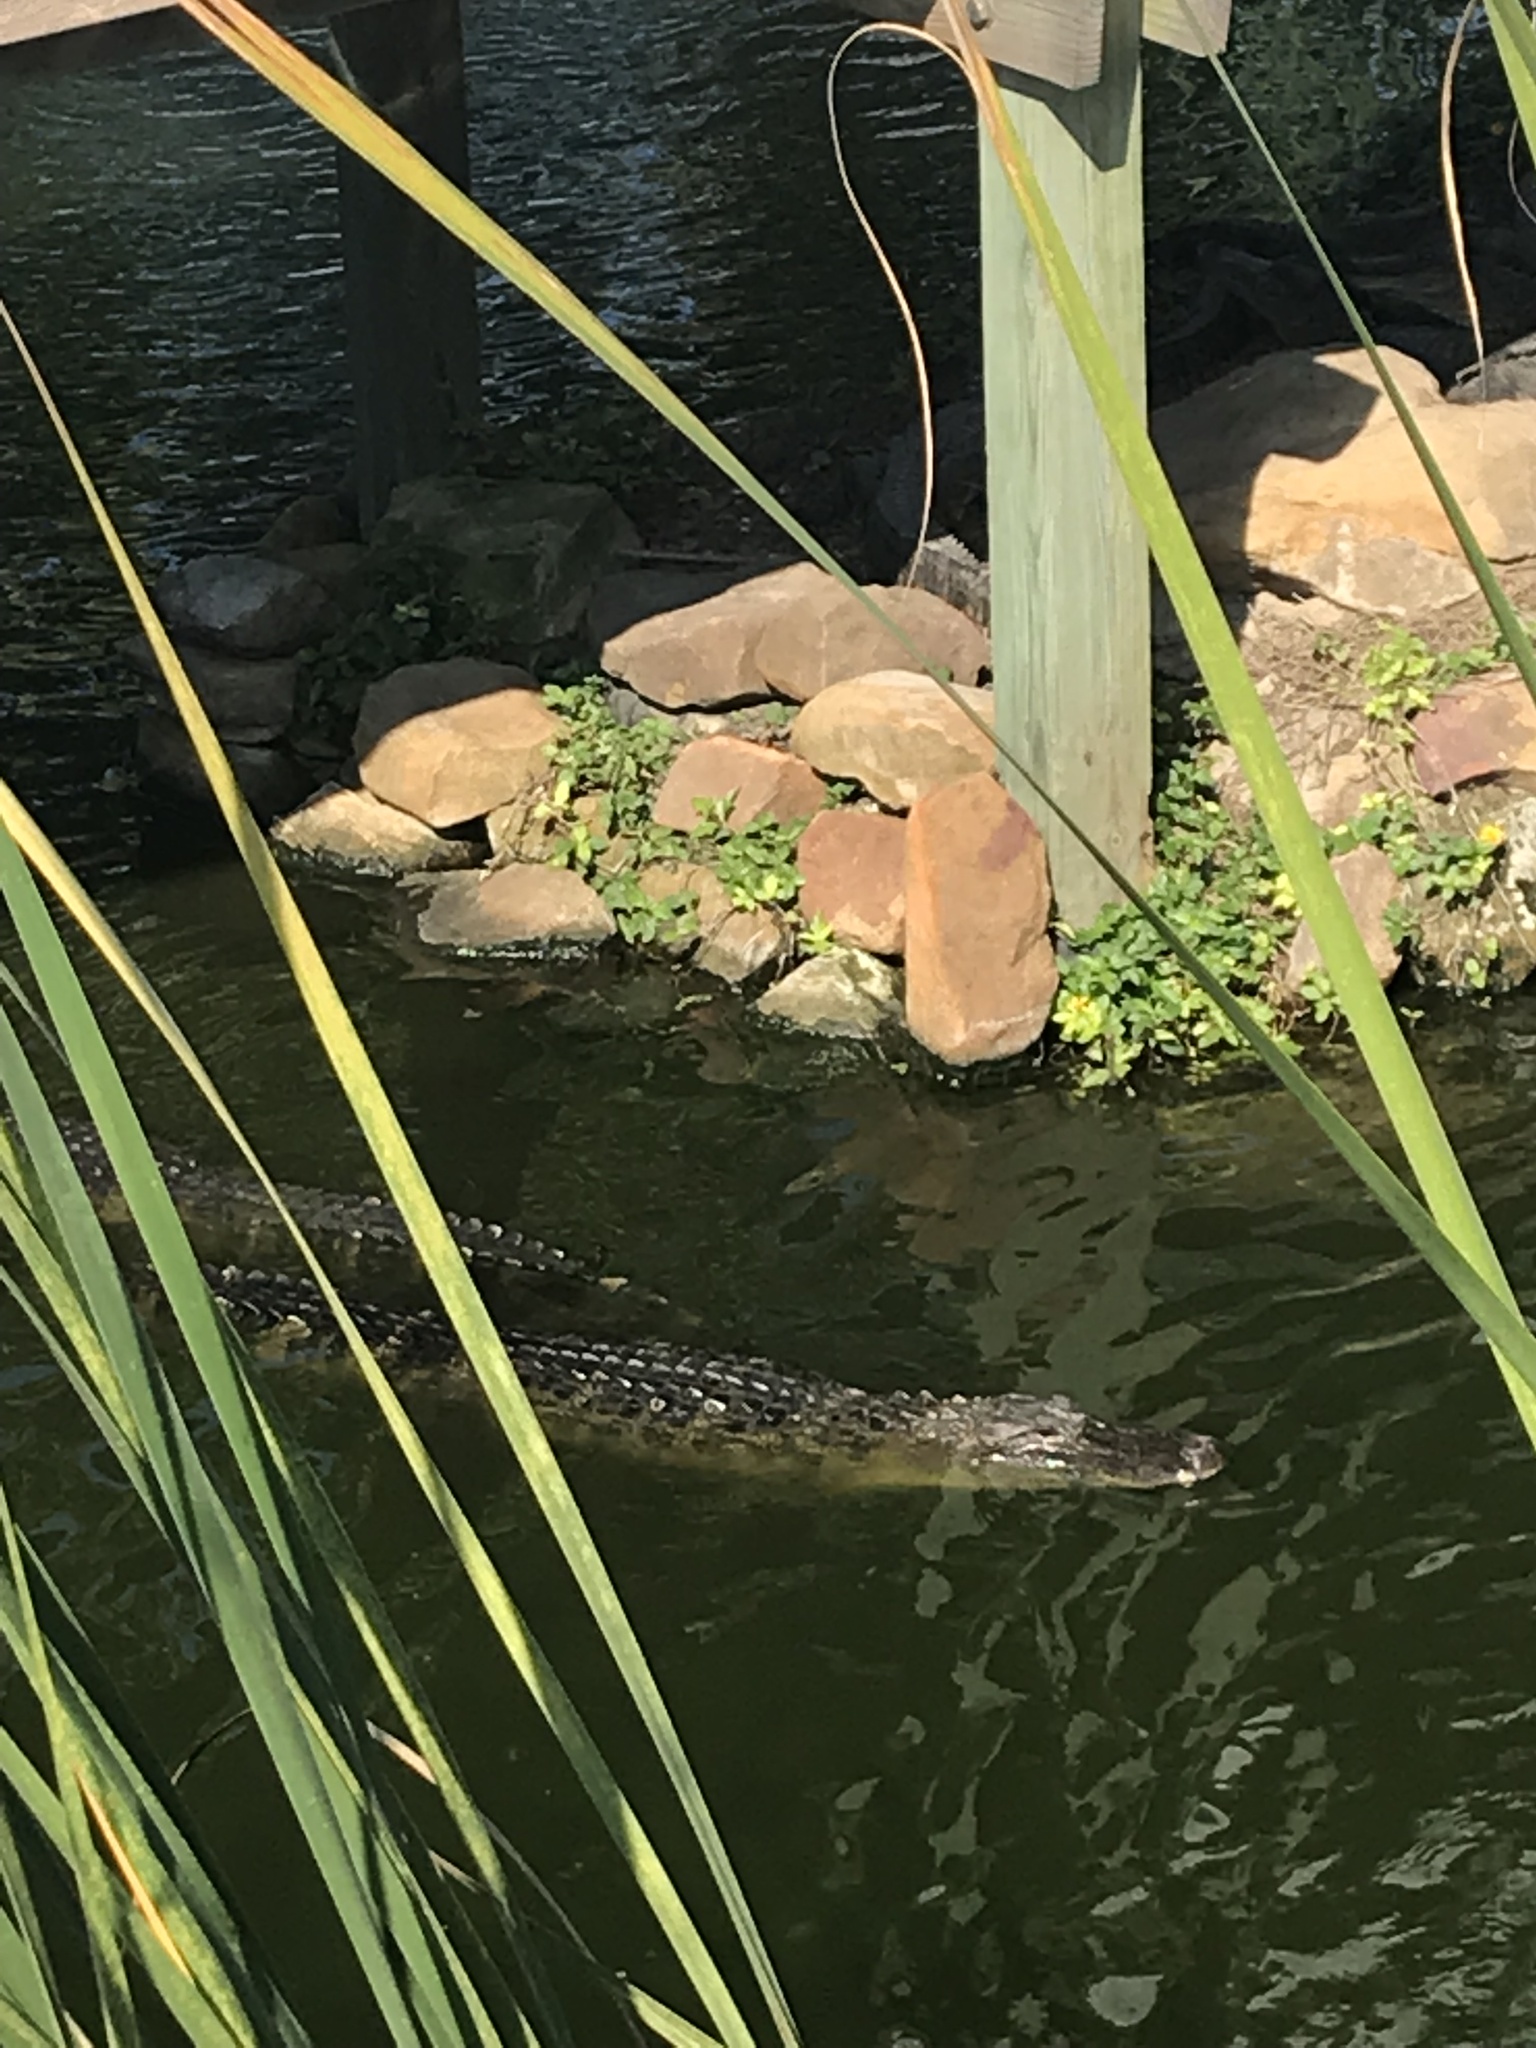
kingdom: Animalia
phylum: Chordata
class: Crocodylia
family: Alligatoridae
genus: Alligator
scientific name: Alligator mississippiensis
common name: American alligator
